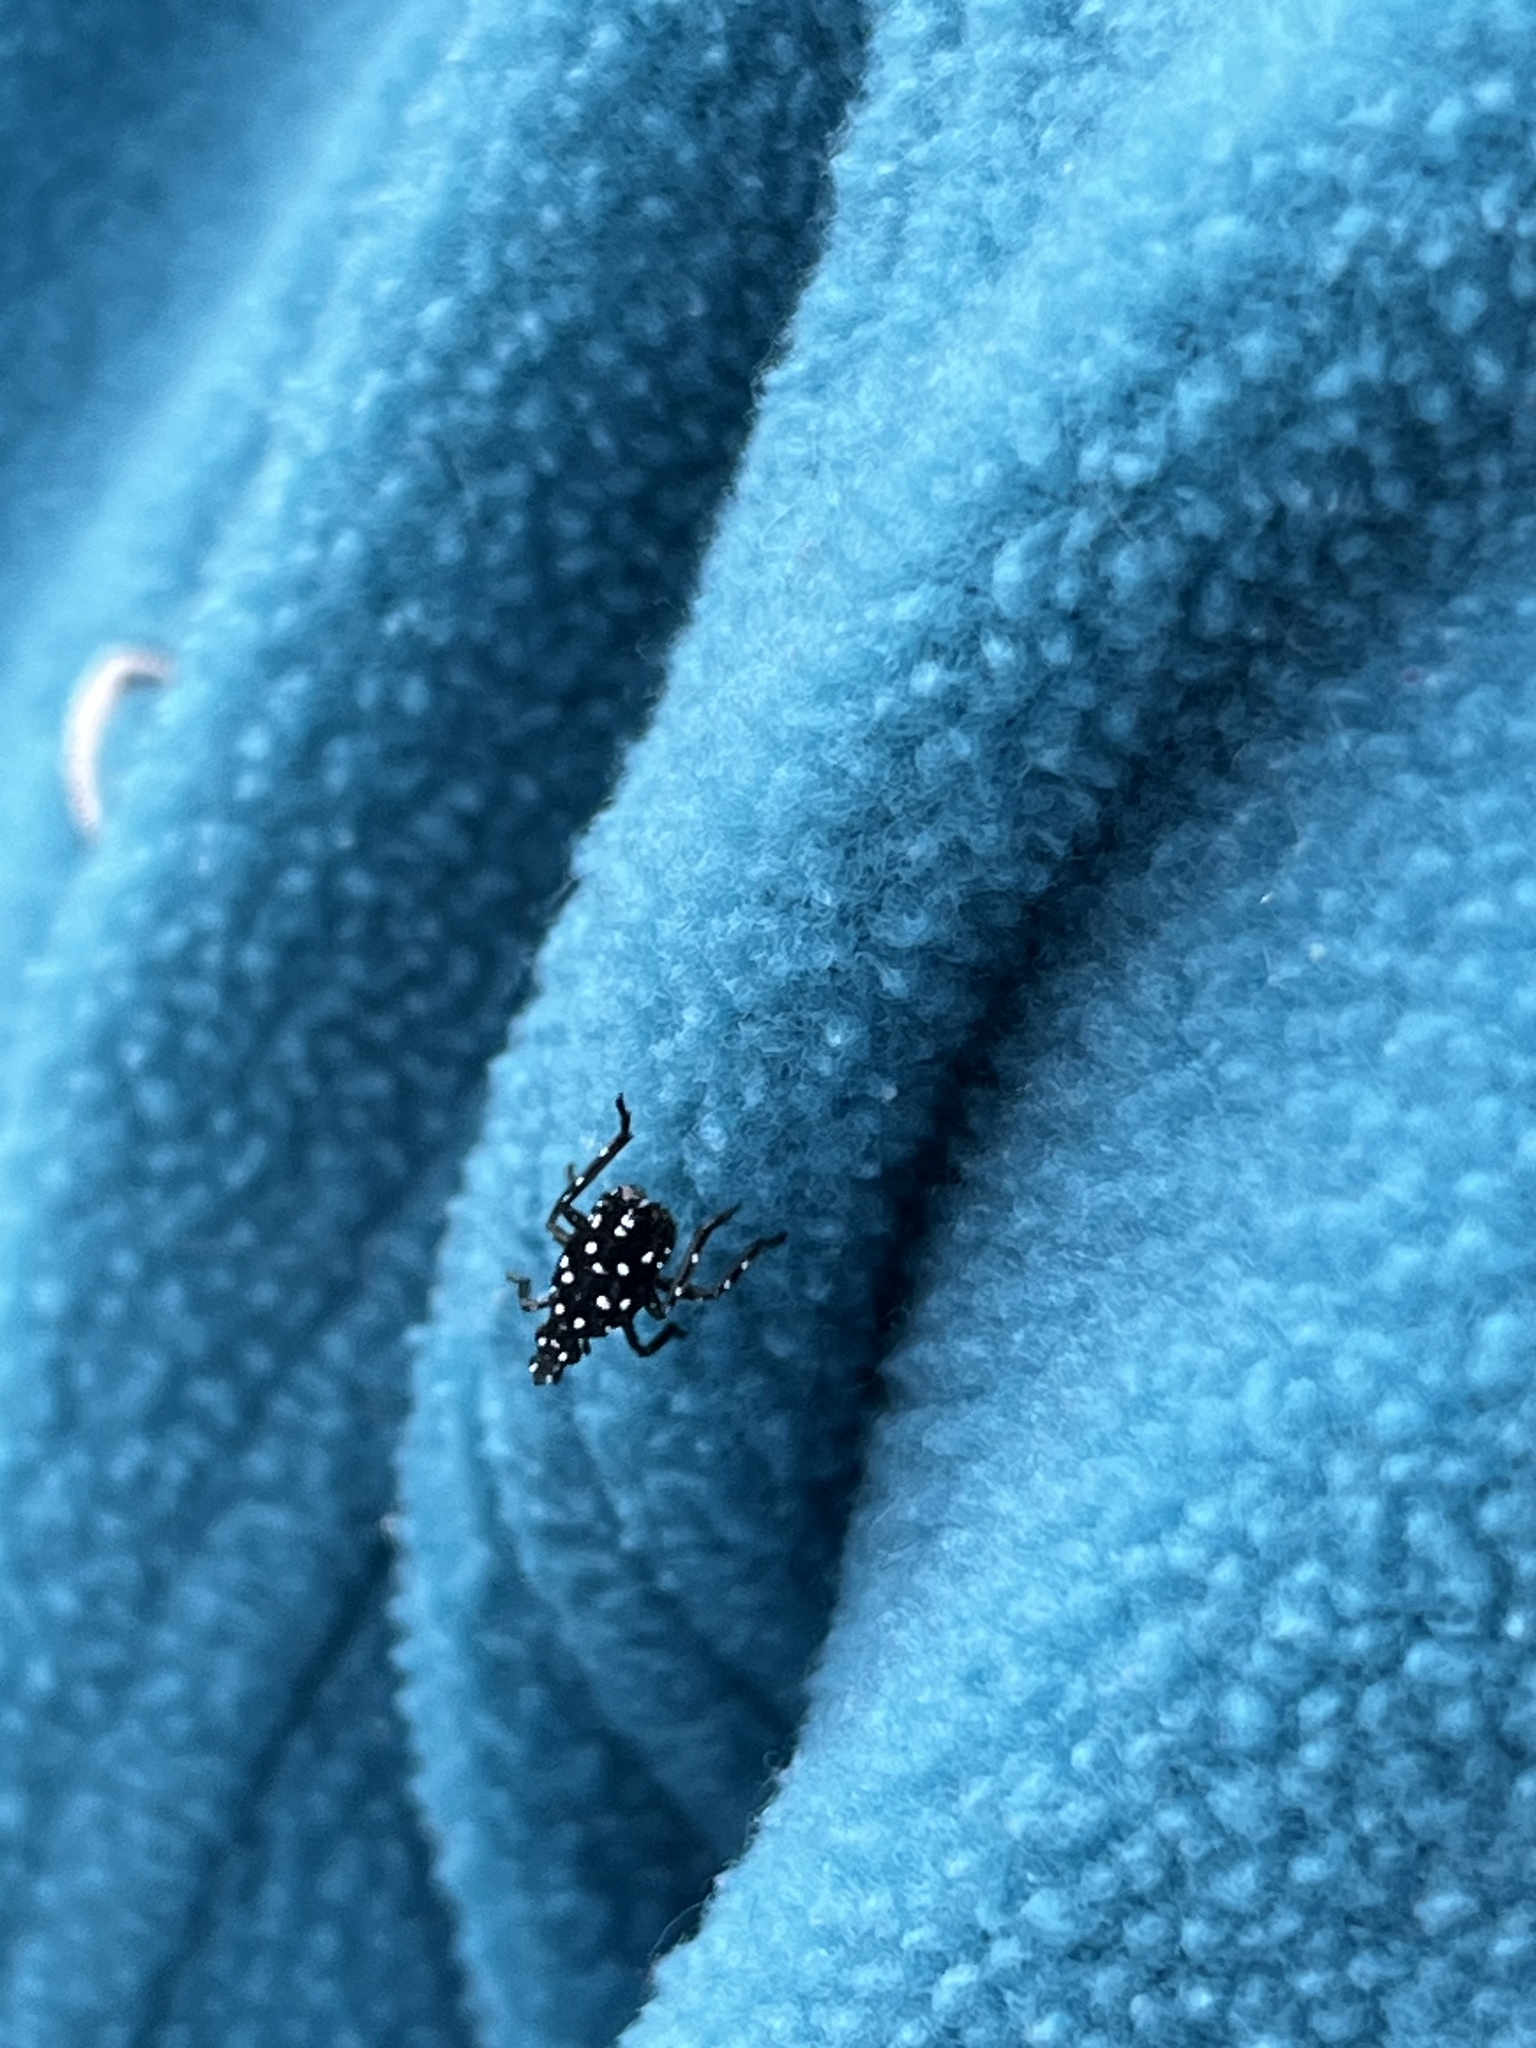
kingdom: Animalia
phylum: Arthropoda
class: Insecta
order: Hemiptera
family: Fulgoridae
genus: Lycorma
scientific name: Lycorma delicatula
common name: Spotted lanternfly
